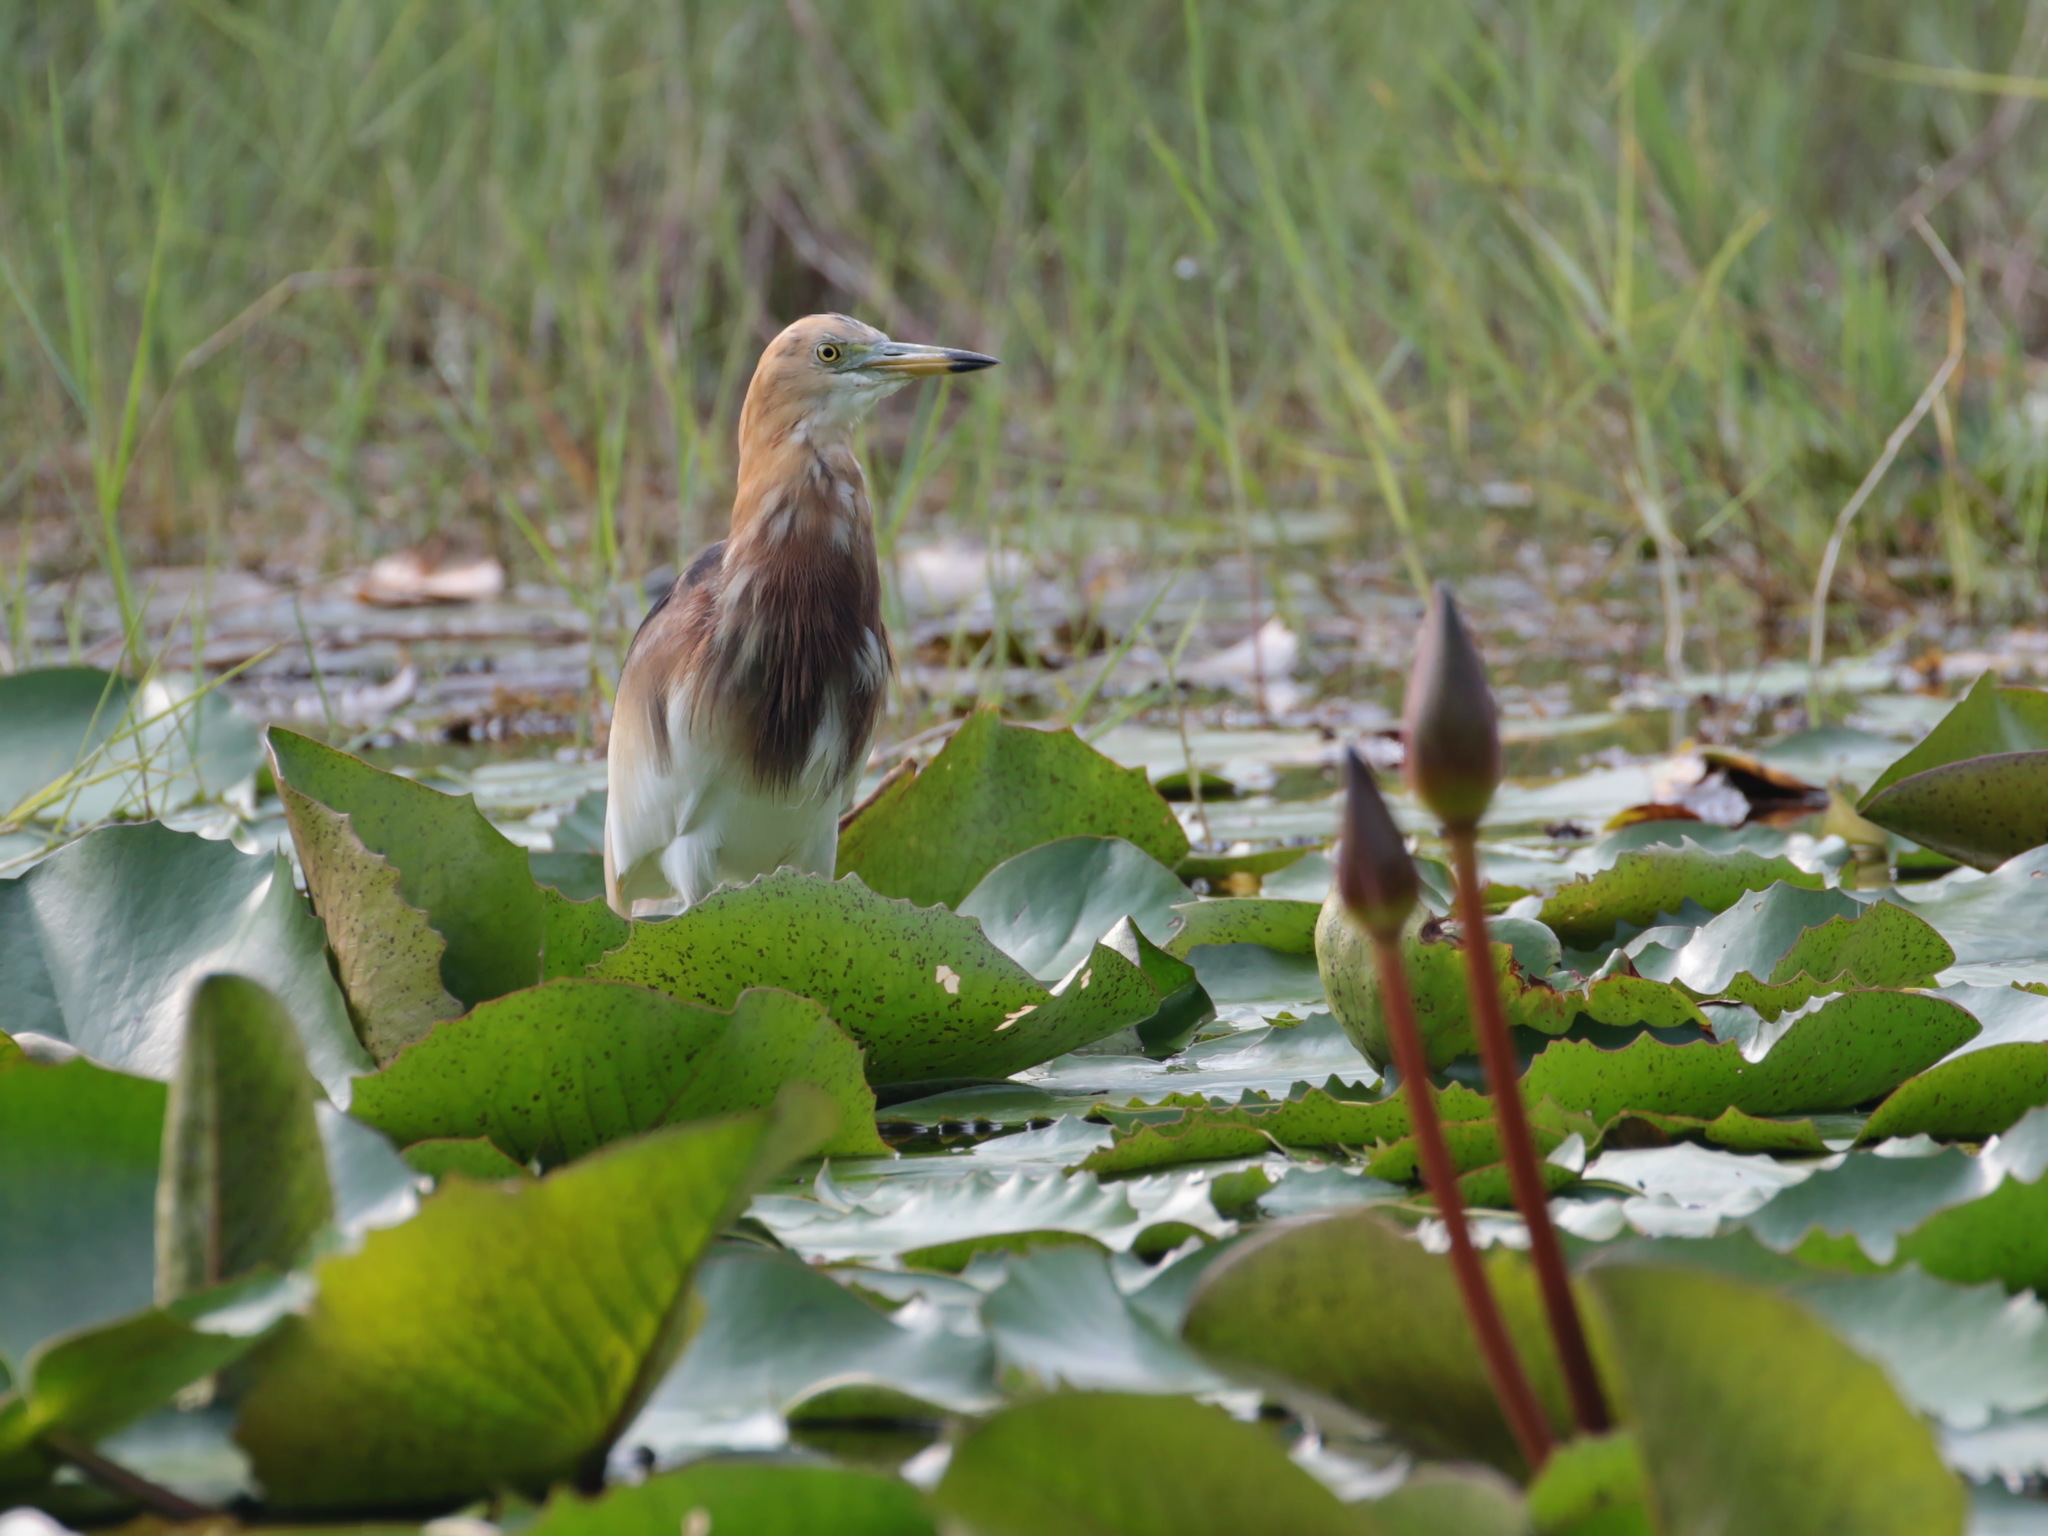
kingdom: Animalia
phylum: Chordata
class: Aves
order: Pelecaniformes
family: Ardeidae
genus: Ardeola
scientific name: Ardeola speciosa
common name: Javan pond heron
